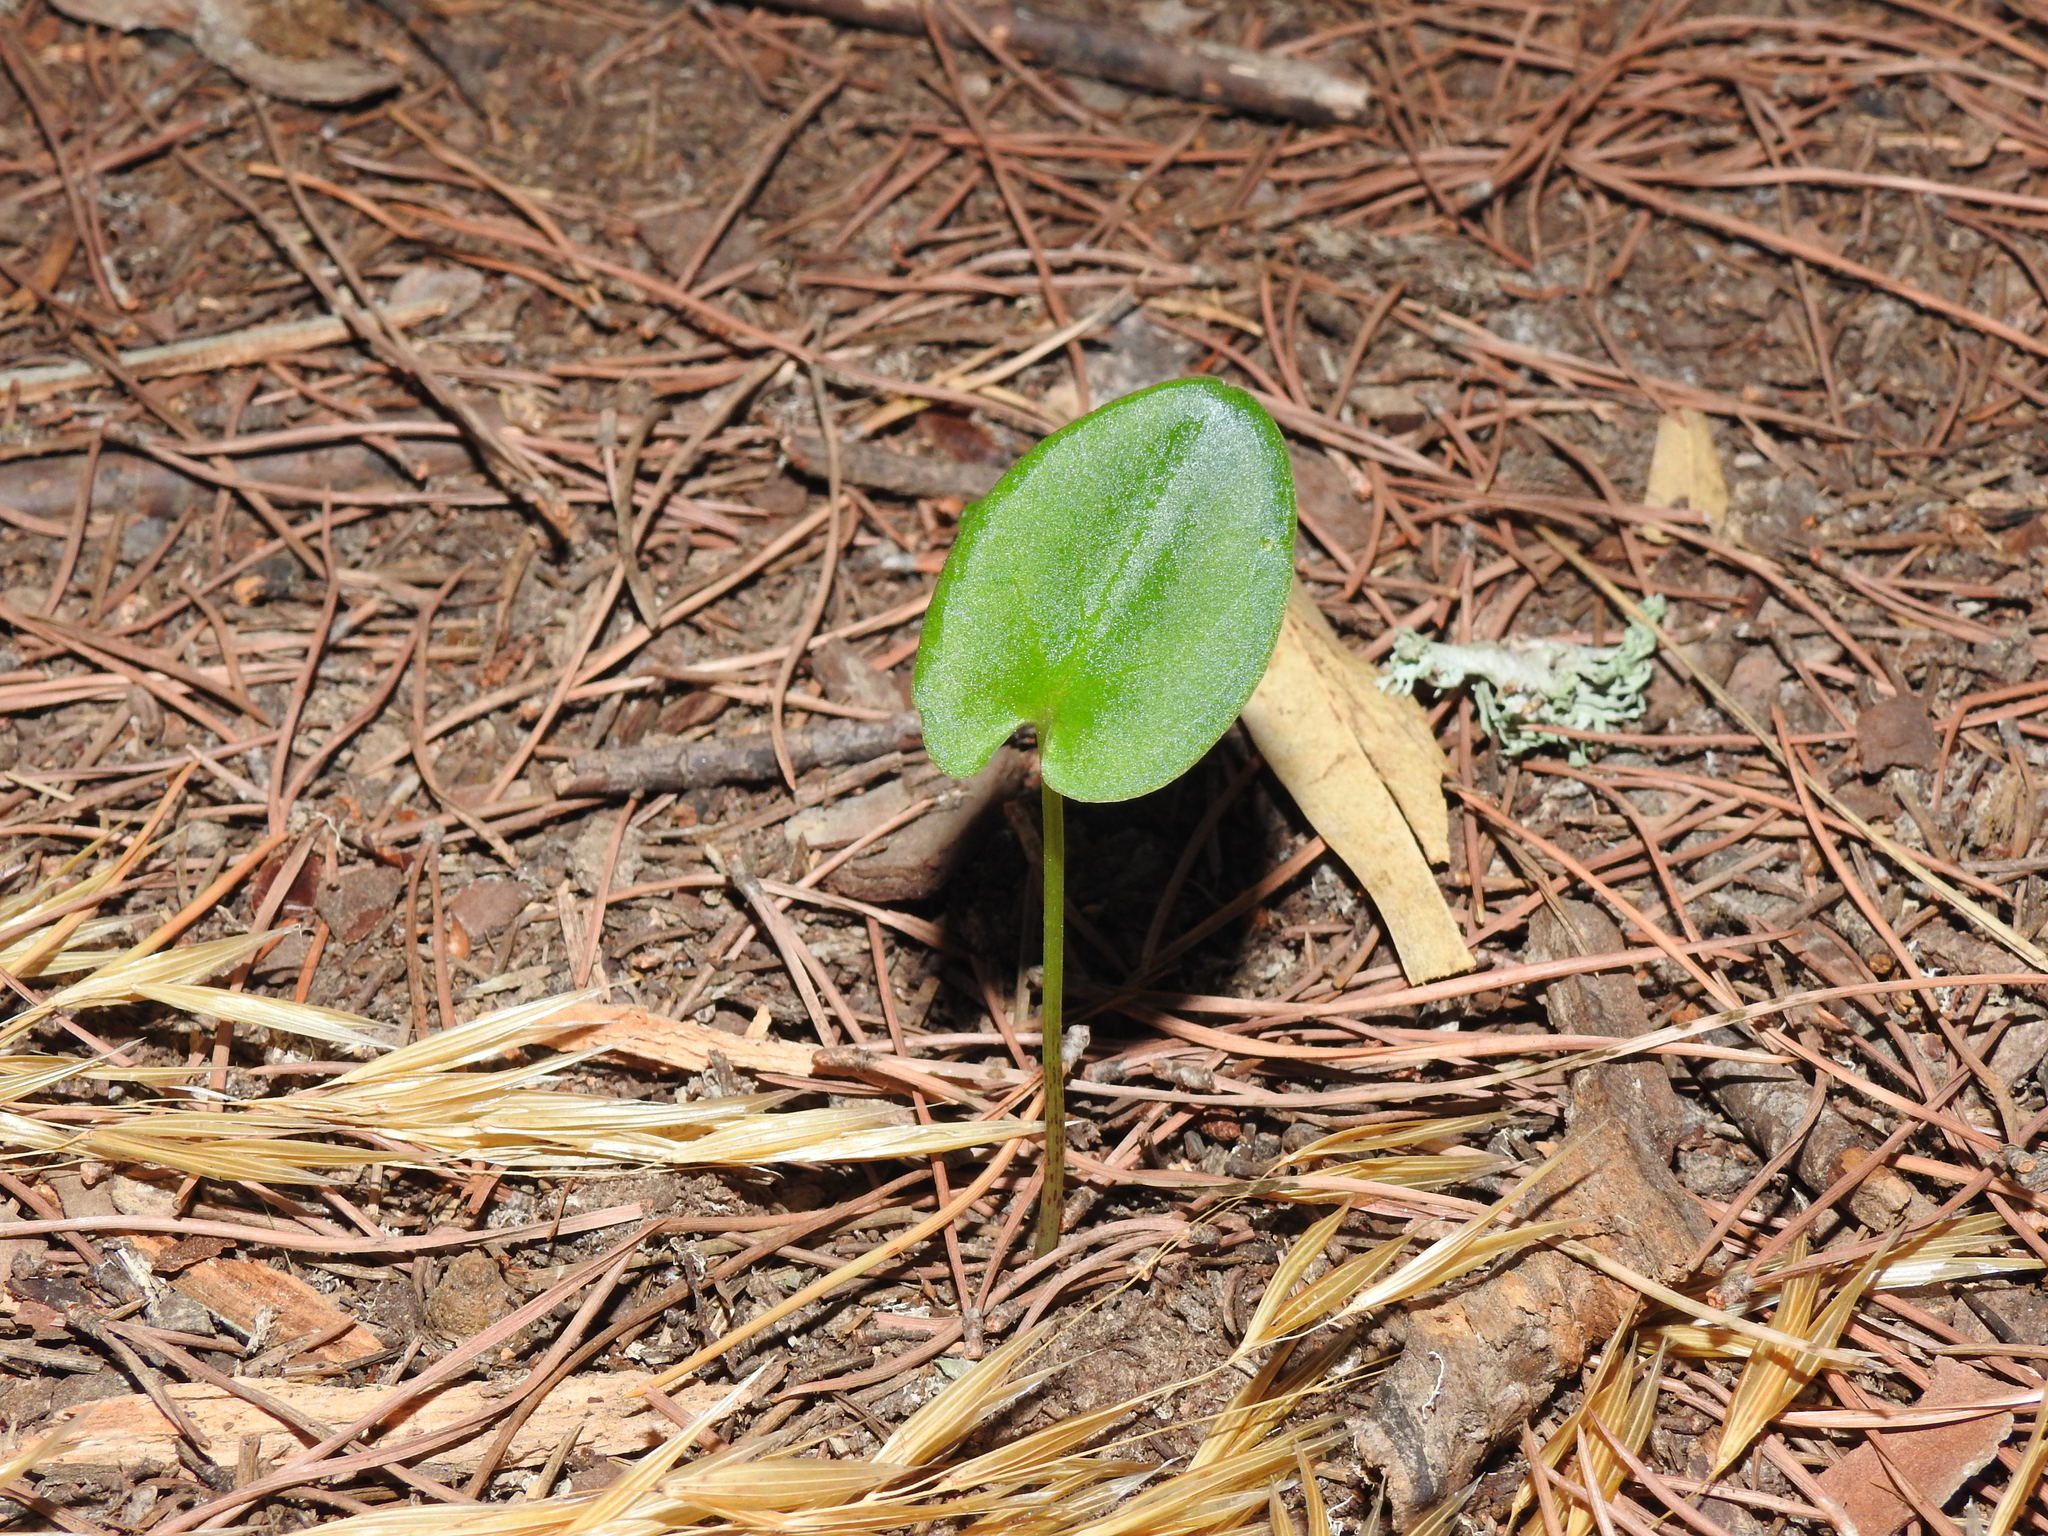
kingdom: Plantae
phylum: Tracheophyta
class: Liliopsida
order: Alismatales
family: Araceae
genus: Arisarum
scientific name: Arisarum simorrhinum
